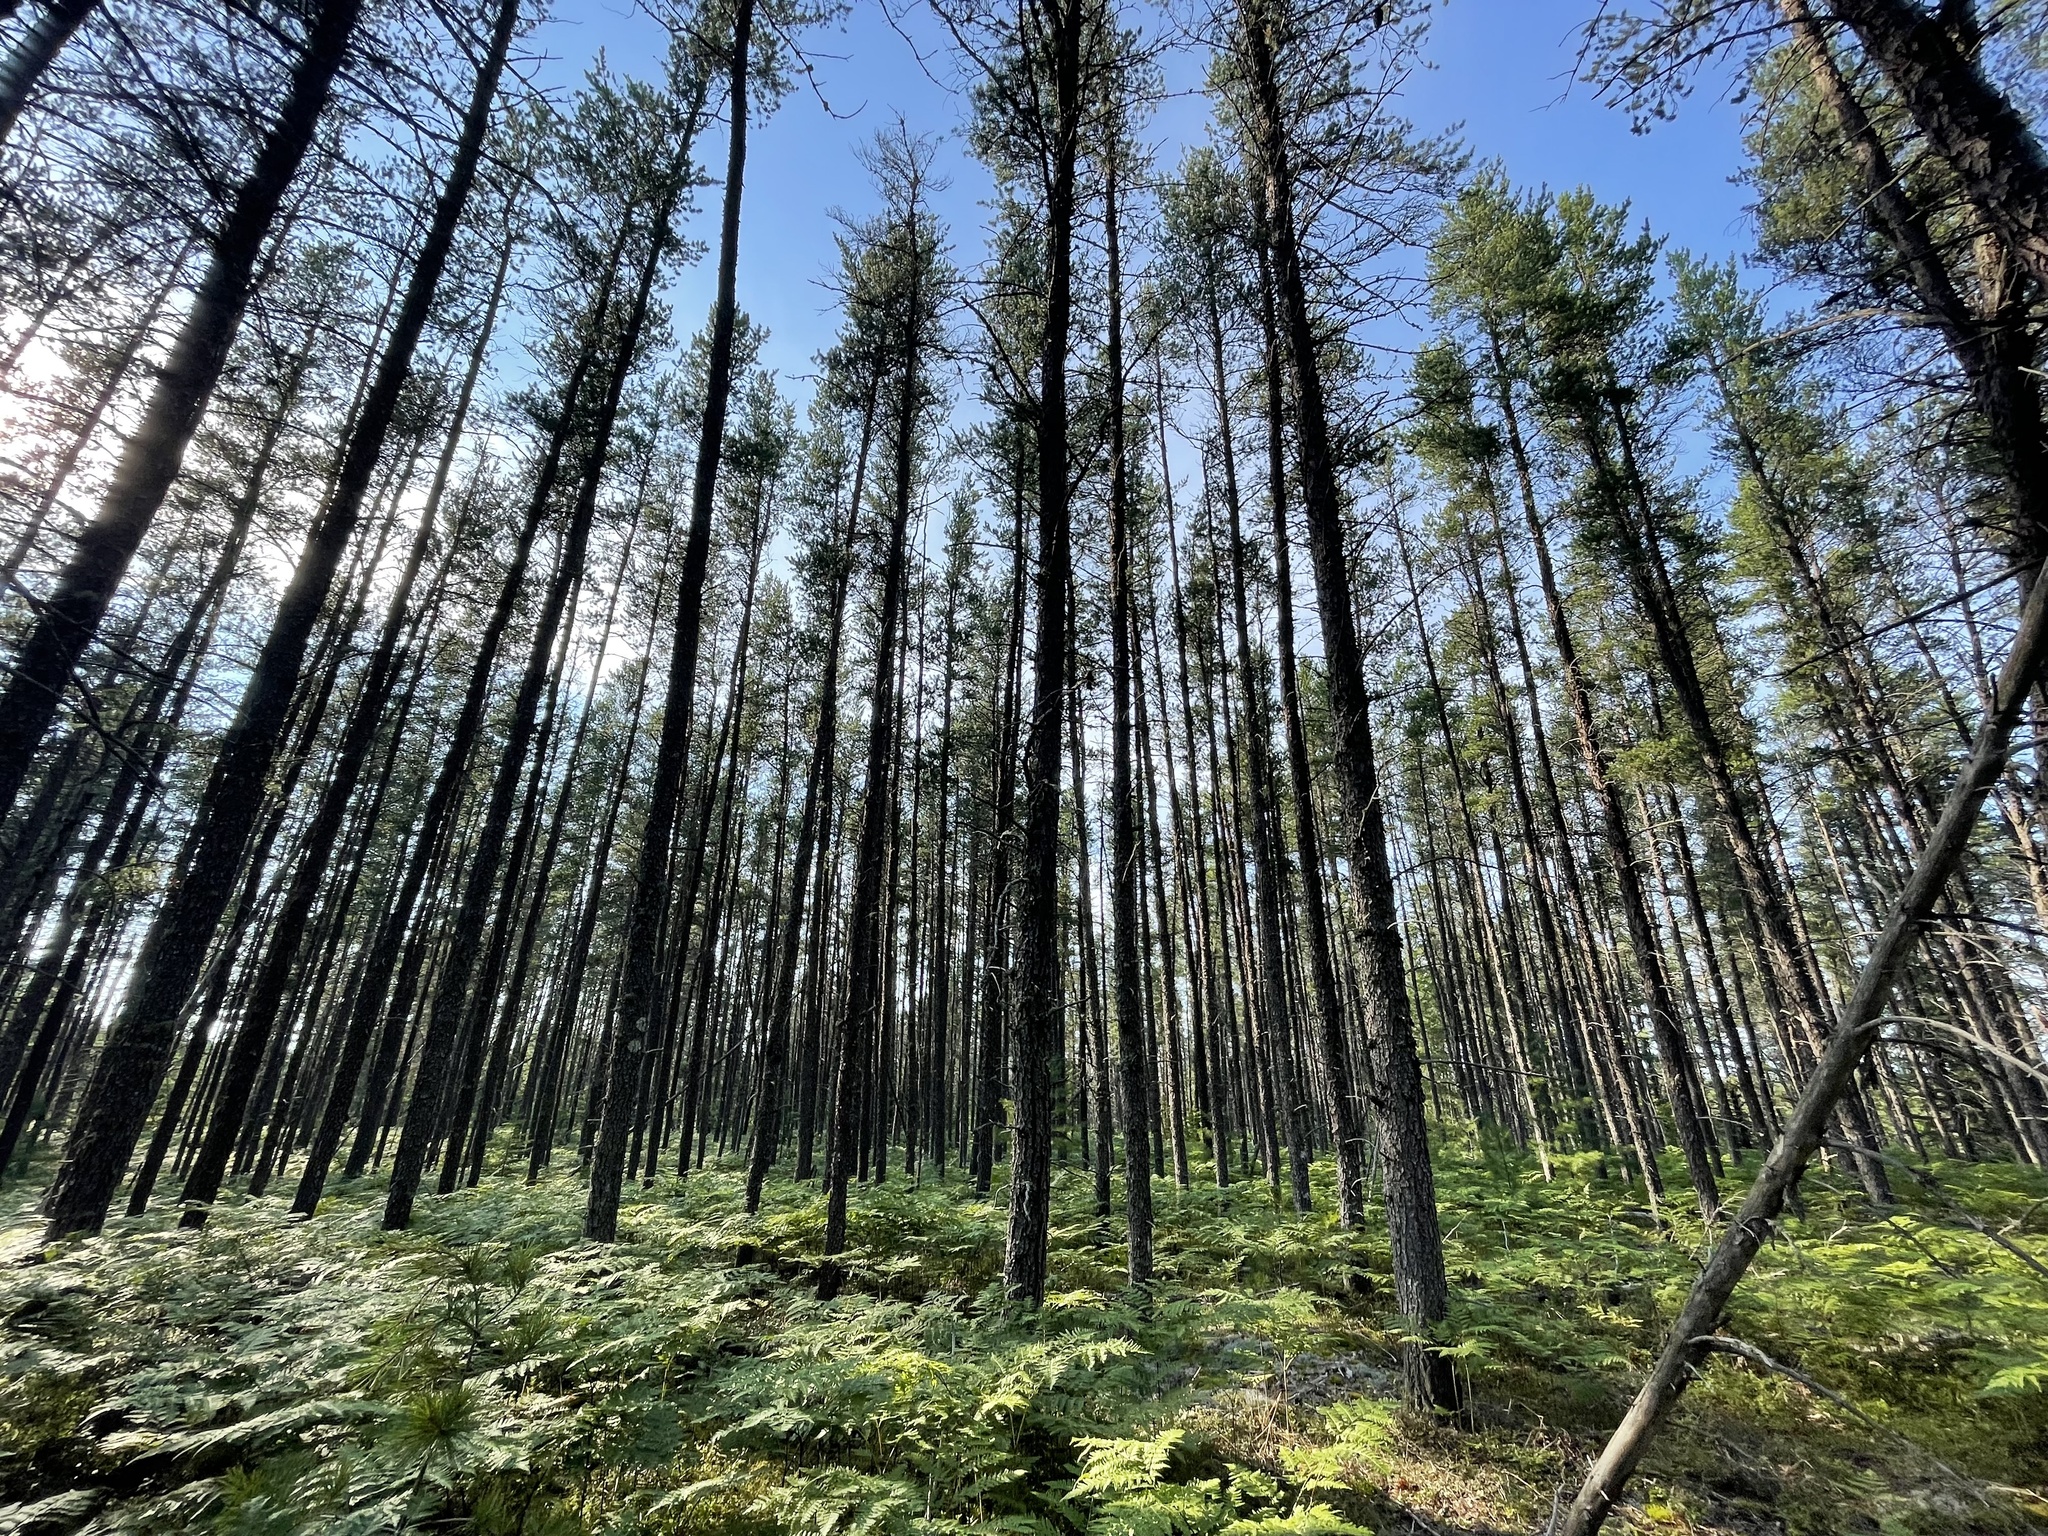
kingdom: Plantae
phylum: Tracheophyta
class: Pinopsida
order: Pinales
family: Pinaceae
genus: Pinus
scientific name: Pinus banksiana
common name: Jack pine
